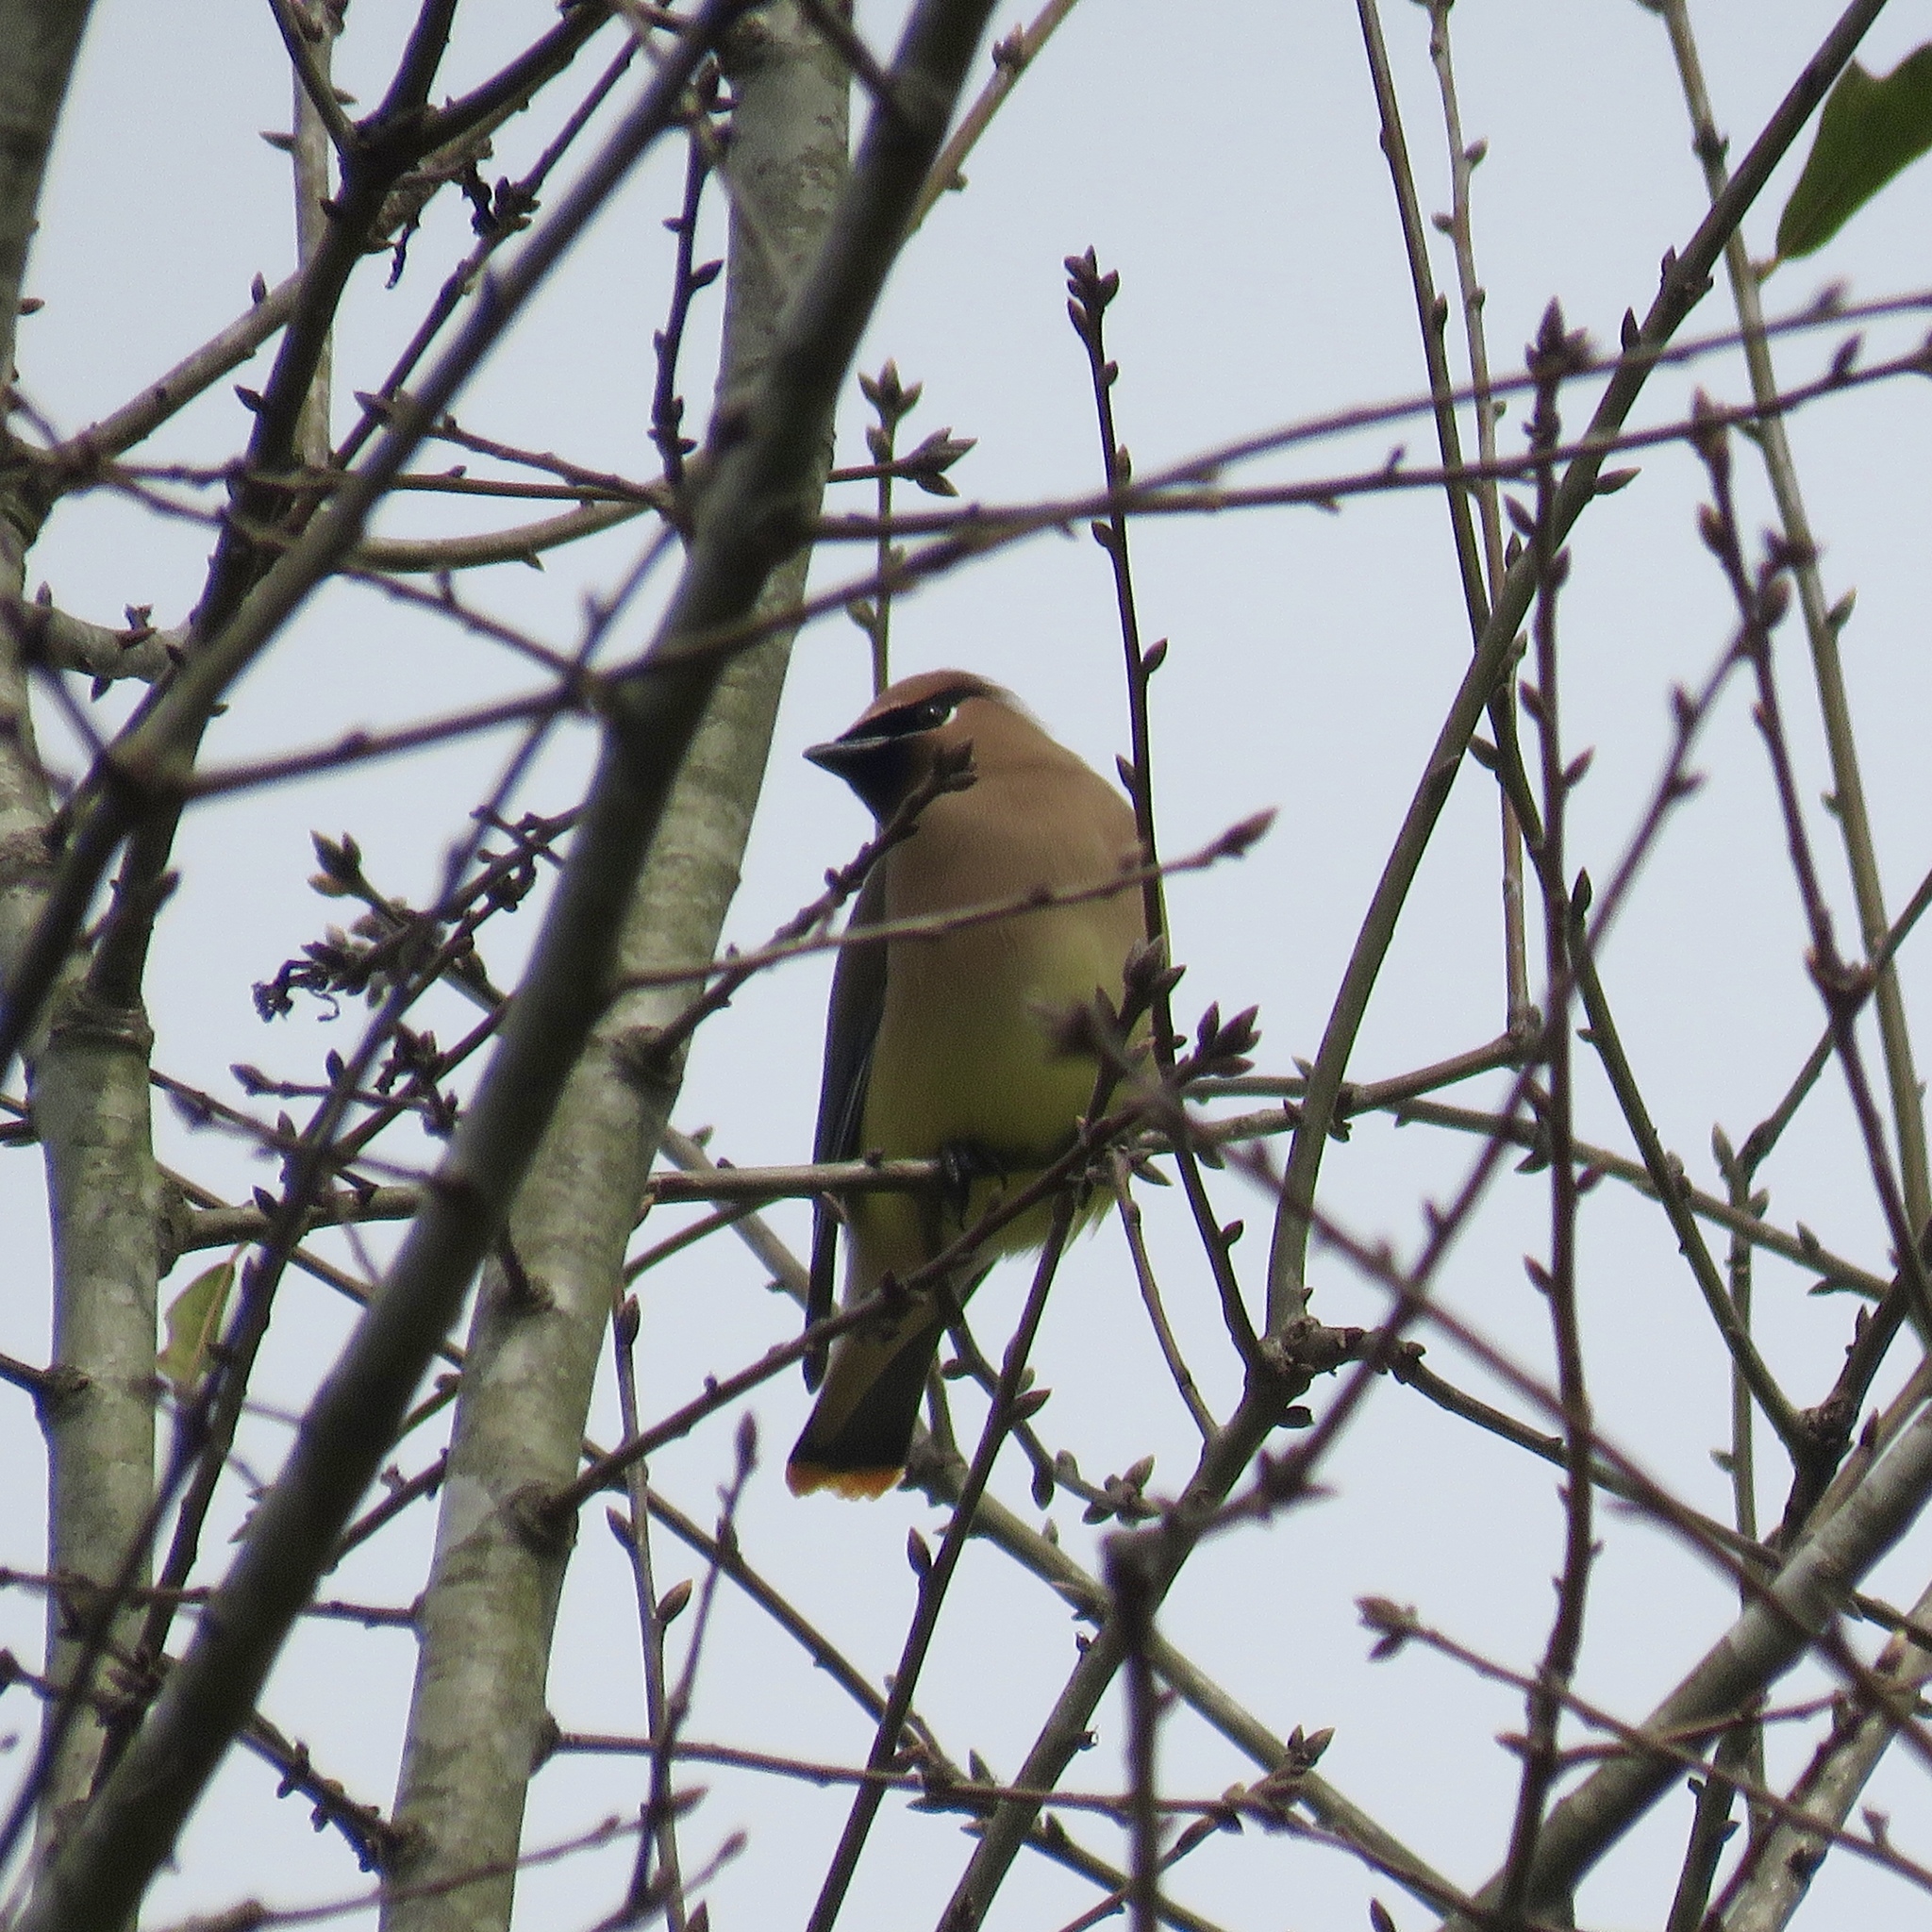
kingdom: Animalia
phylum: Chordata
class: Aves
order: Passeriformes
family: Bombycillidae
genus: Bombycilla
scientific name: Bombycilla cedrorum
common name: Cedar waxwing
